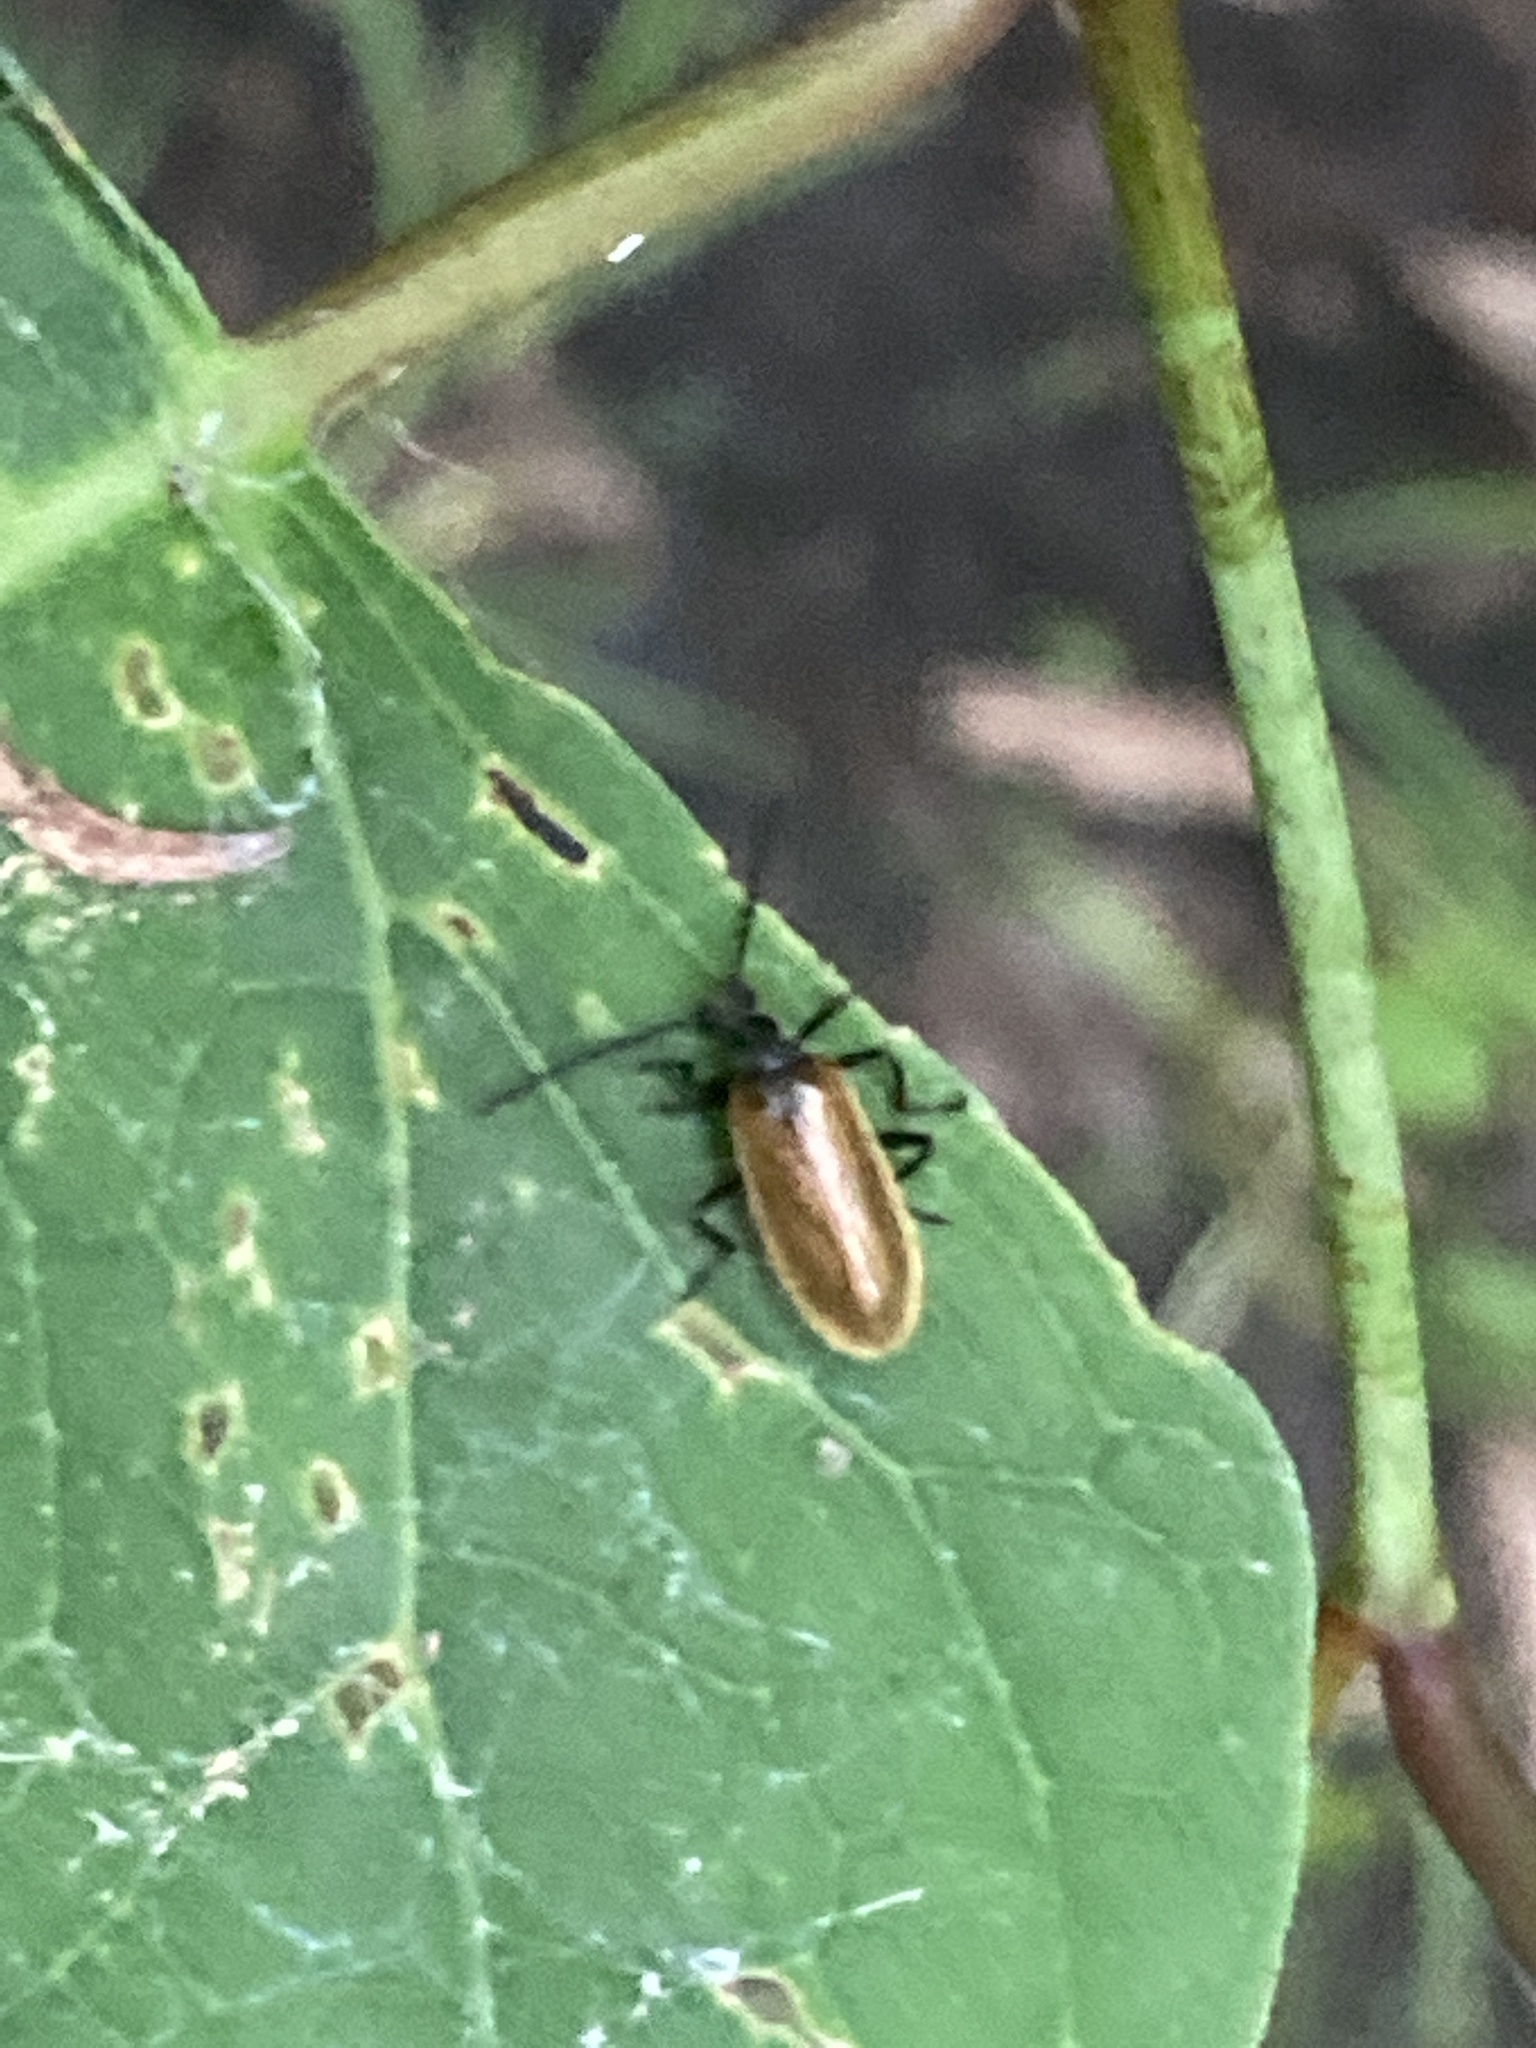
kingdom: Animalia
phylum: Arthropoda
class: Insecta
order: Coleoptera
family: Tenebrionidae
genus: Lagria
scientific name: Lagria hirta
